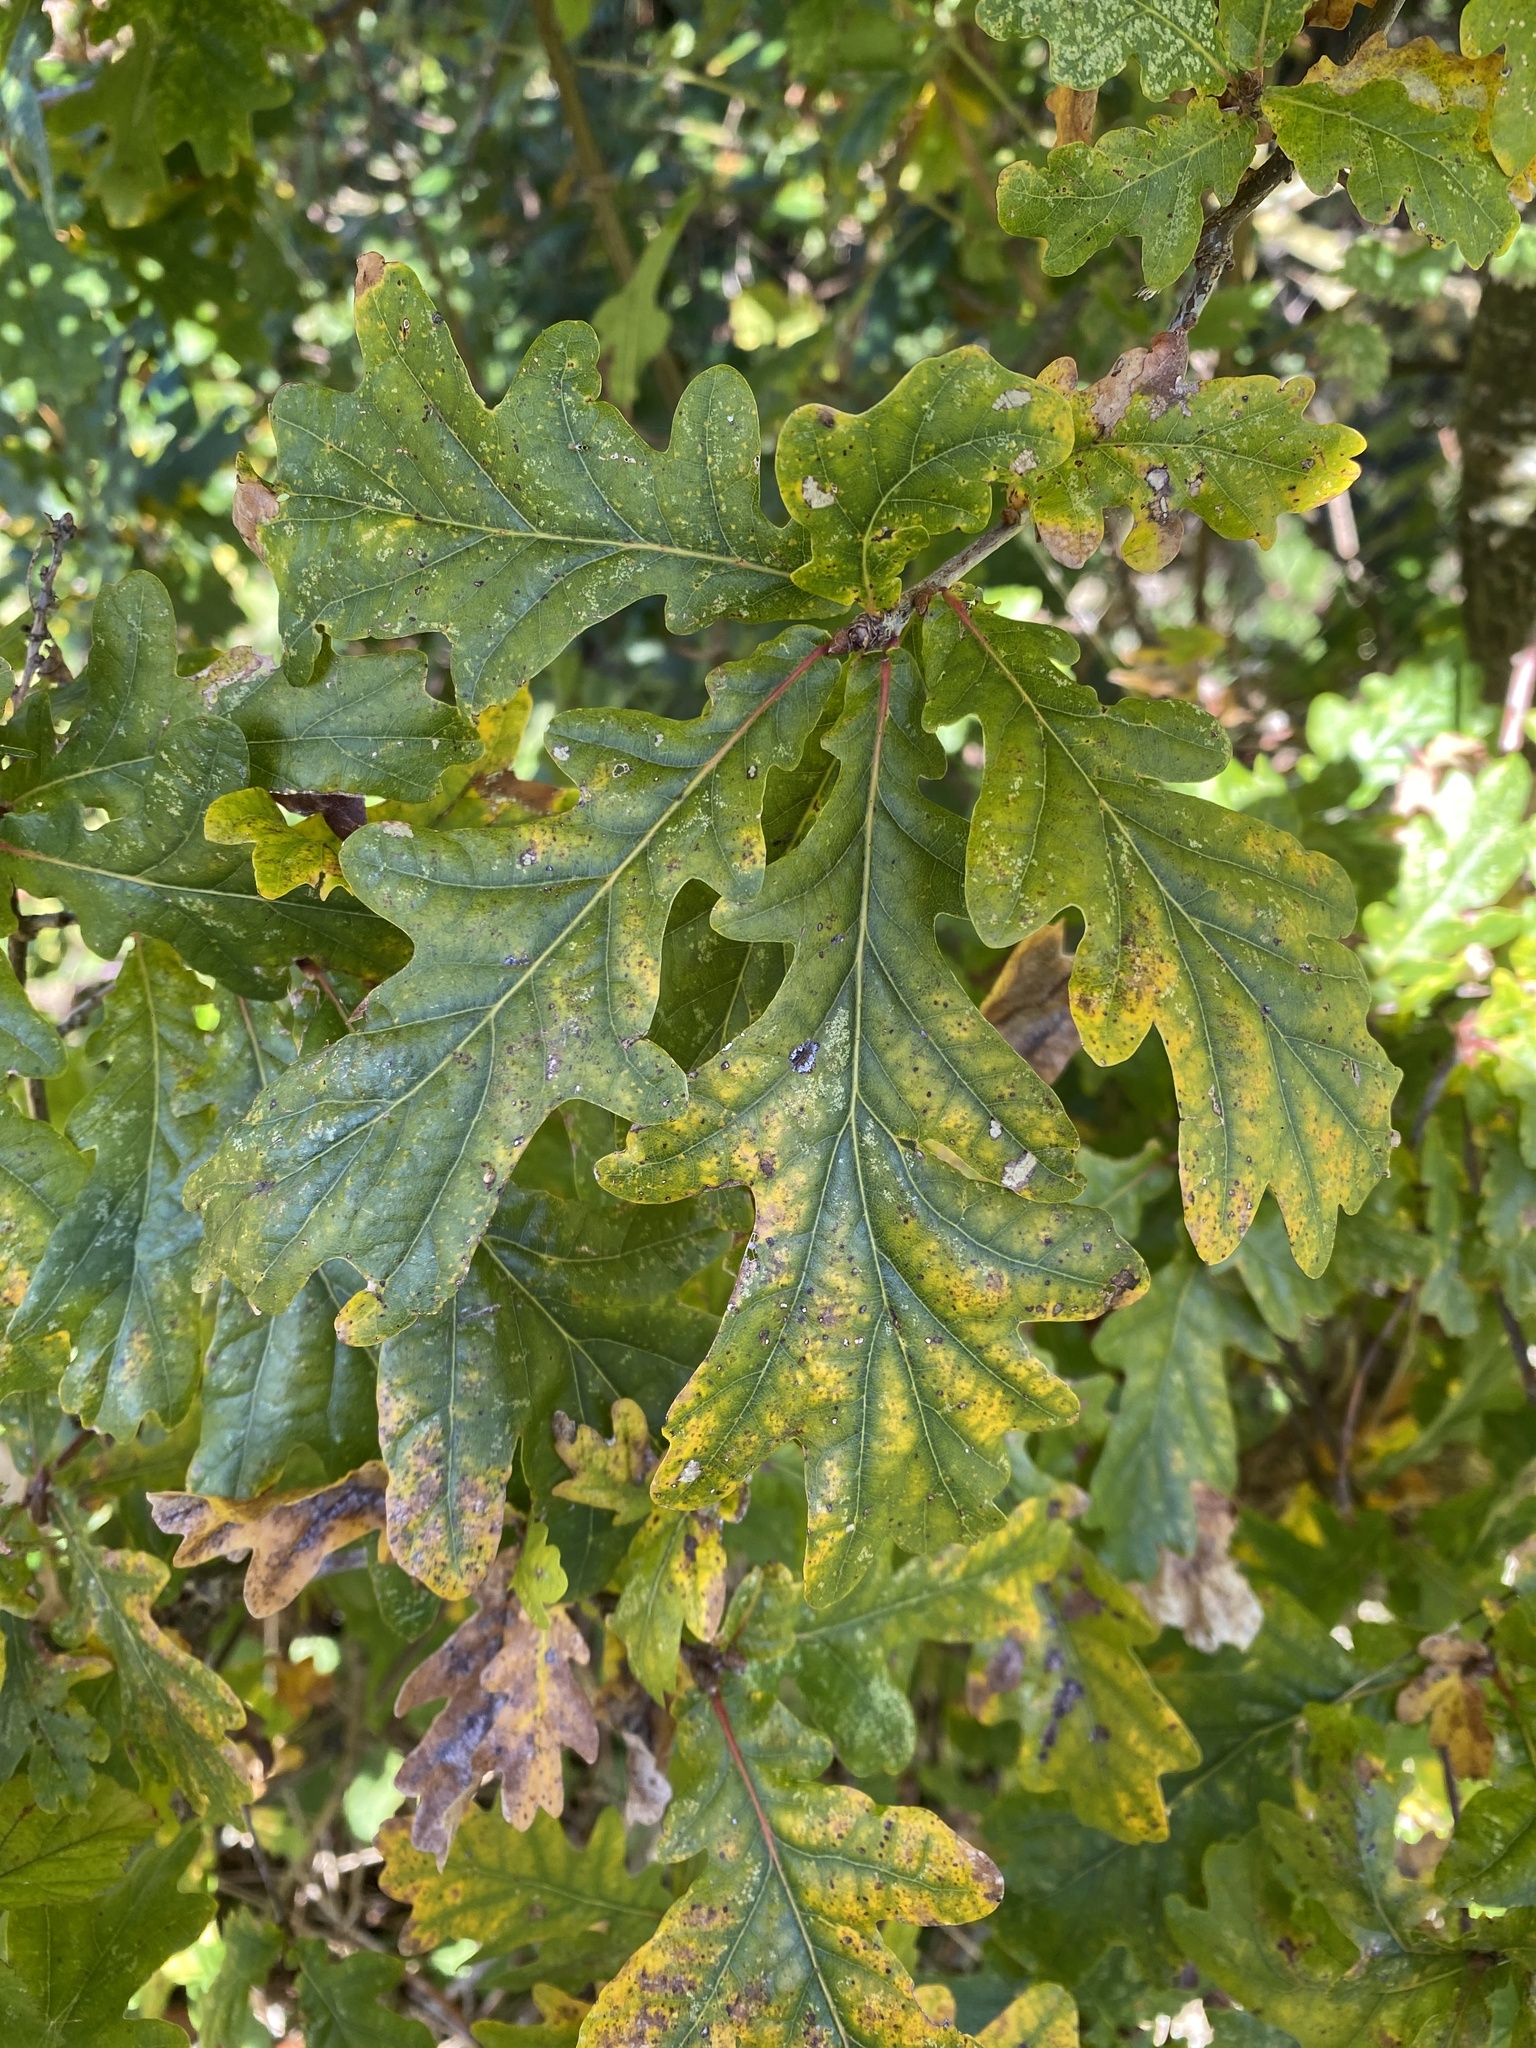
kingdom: Plantae
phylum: Tracheophyta
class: Magnoliopsida
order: Fagales
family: Fagaceae
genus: Quercus
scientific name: Quercus robur
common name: Pedunculate oak
